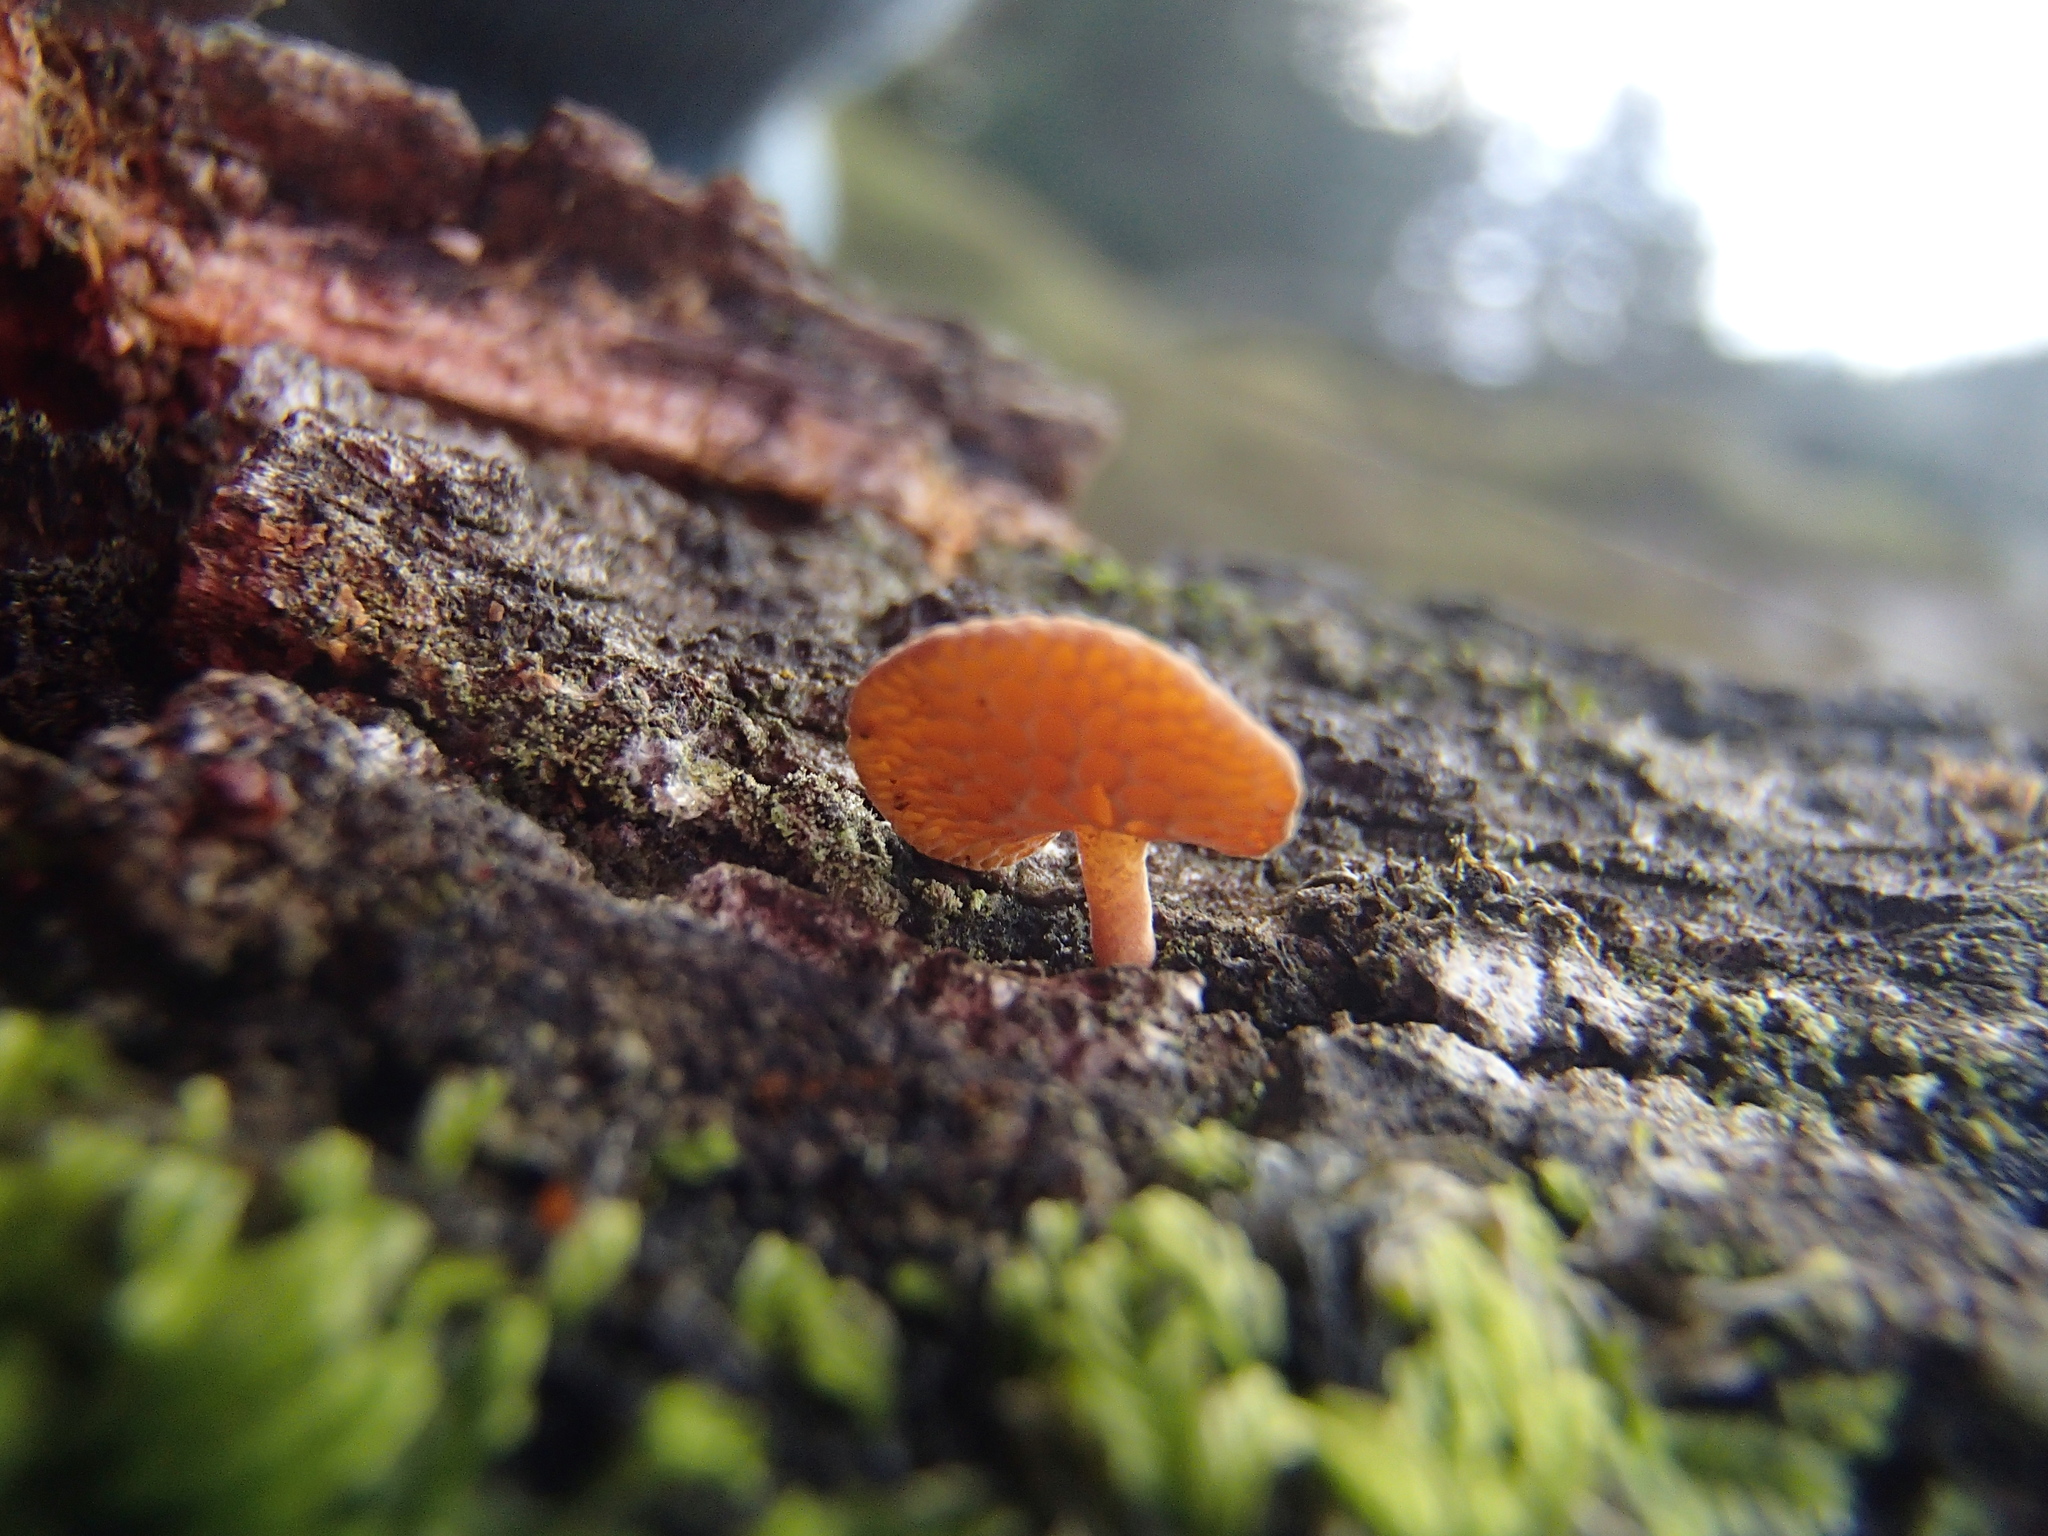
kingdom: Fungi
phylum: Basidiomycota
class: Agaricomycetes
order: Agaricales
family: Mycenaceae
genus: Favolaschia
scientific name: Favolaschia claudopus
